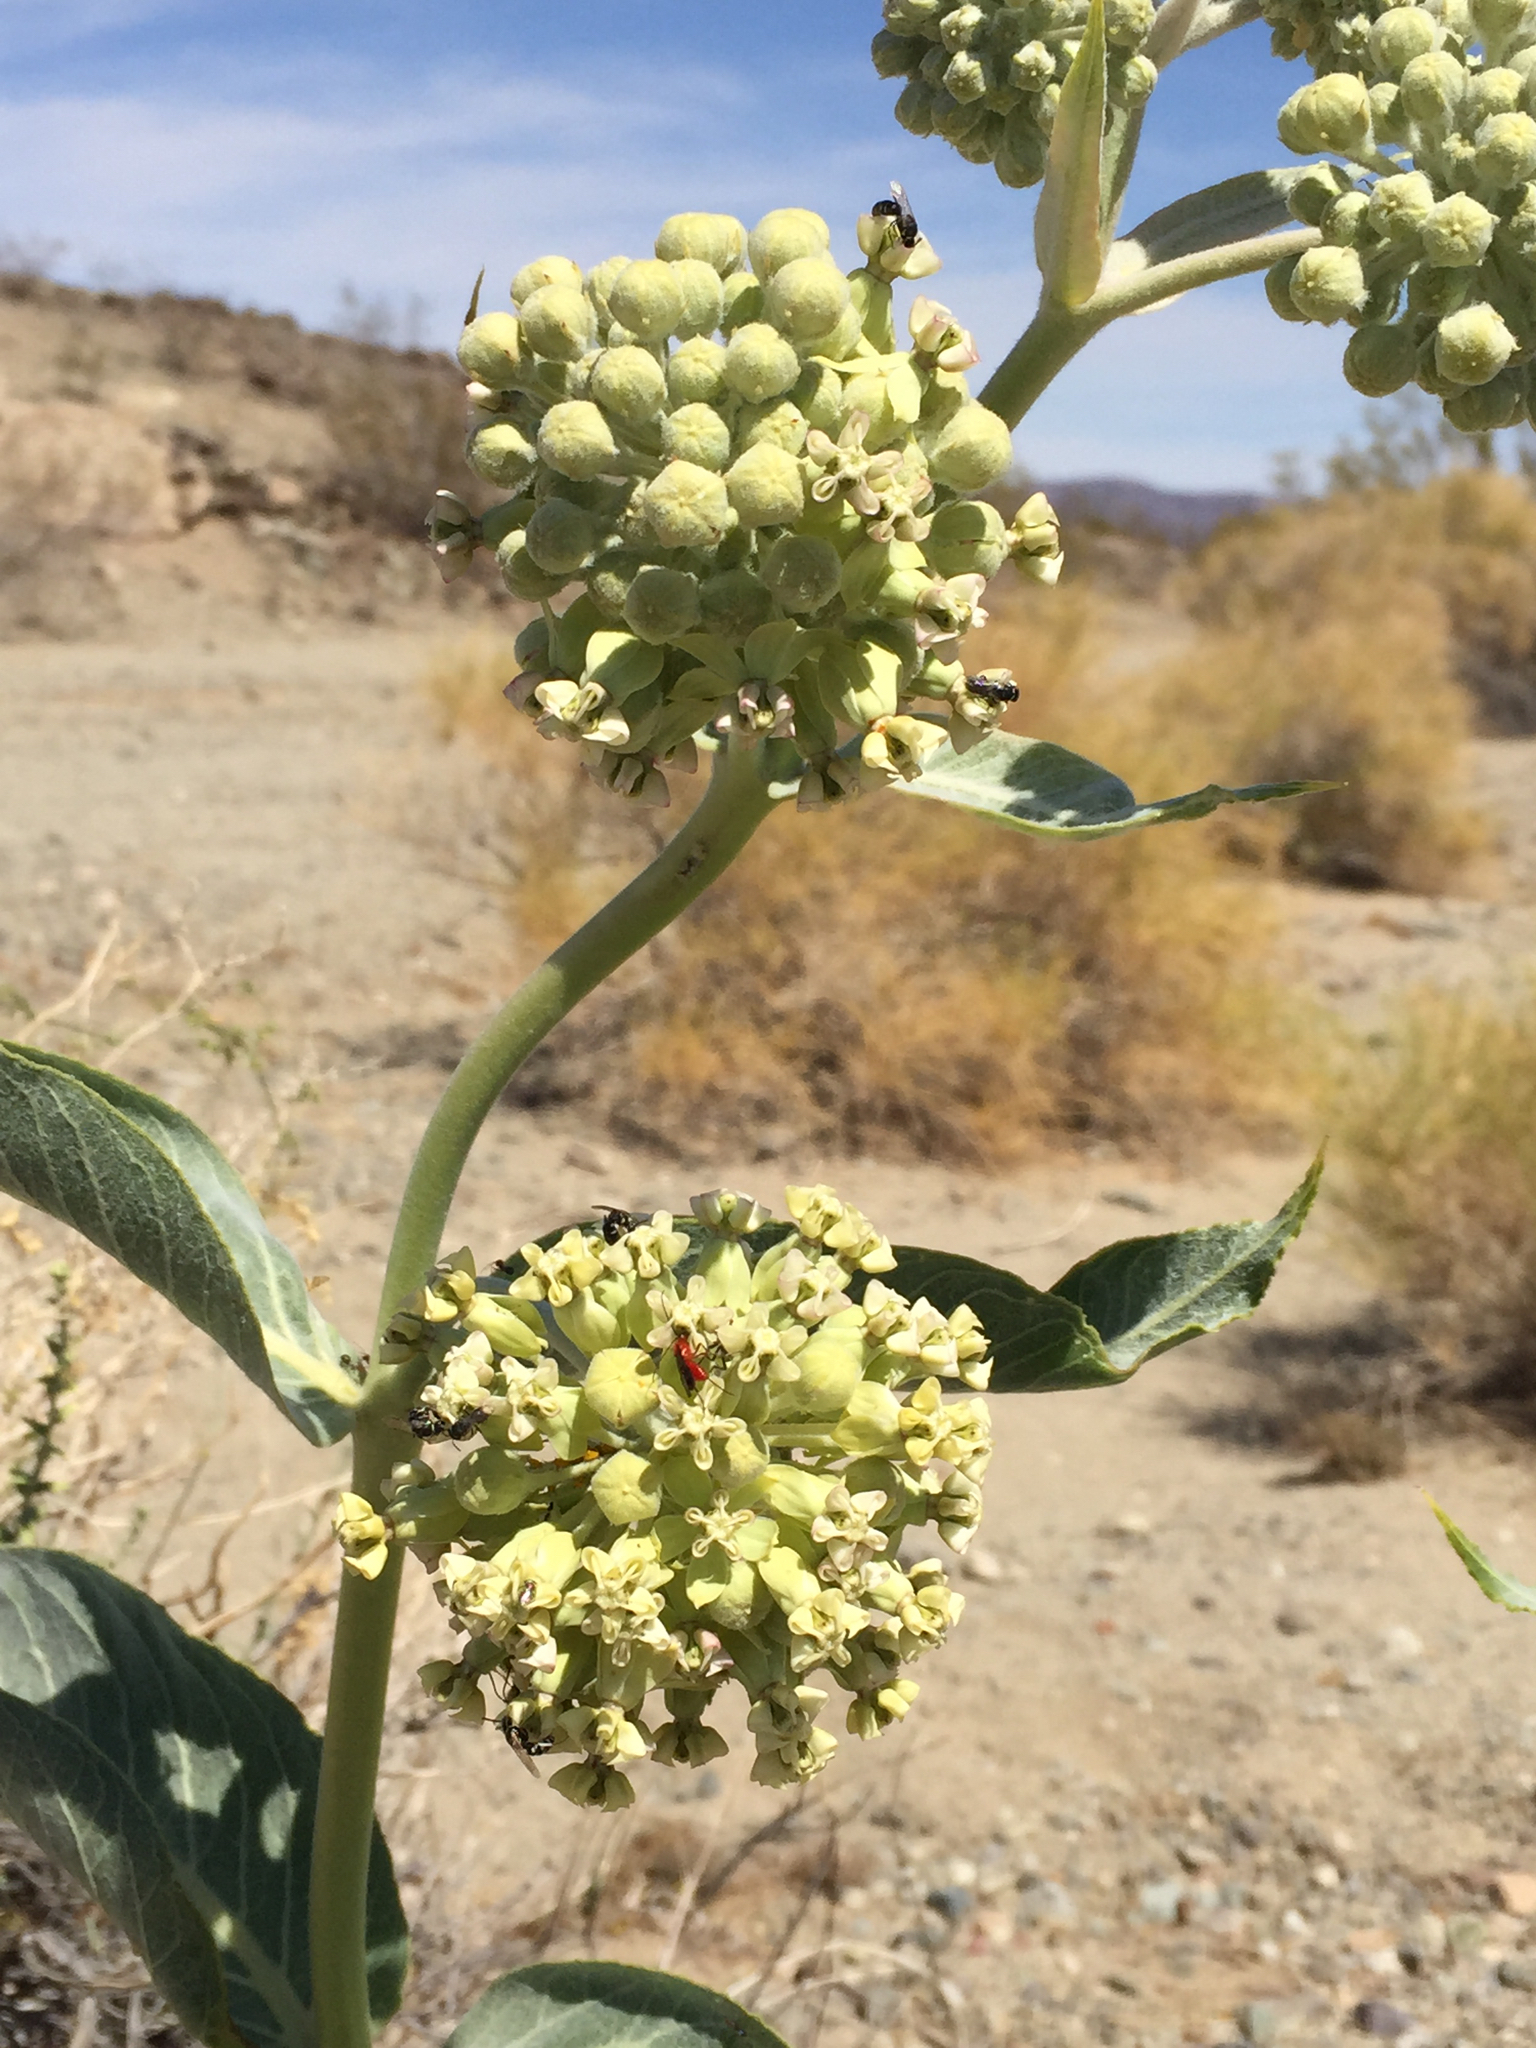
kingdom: Plantae
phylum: Tracheophyta
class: Magnoliopsida
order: Gentianales
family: Apocynaceae
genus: Asclepias
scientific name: Asclepias erosa
